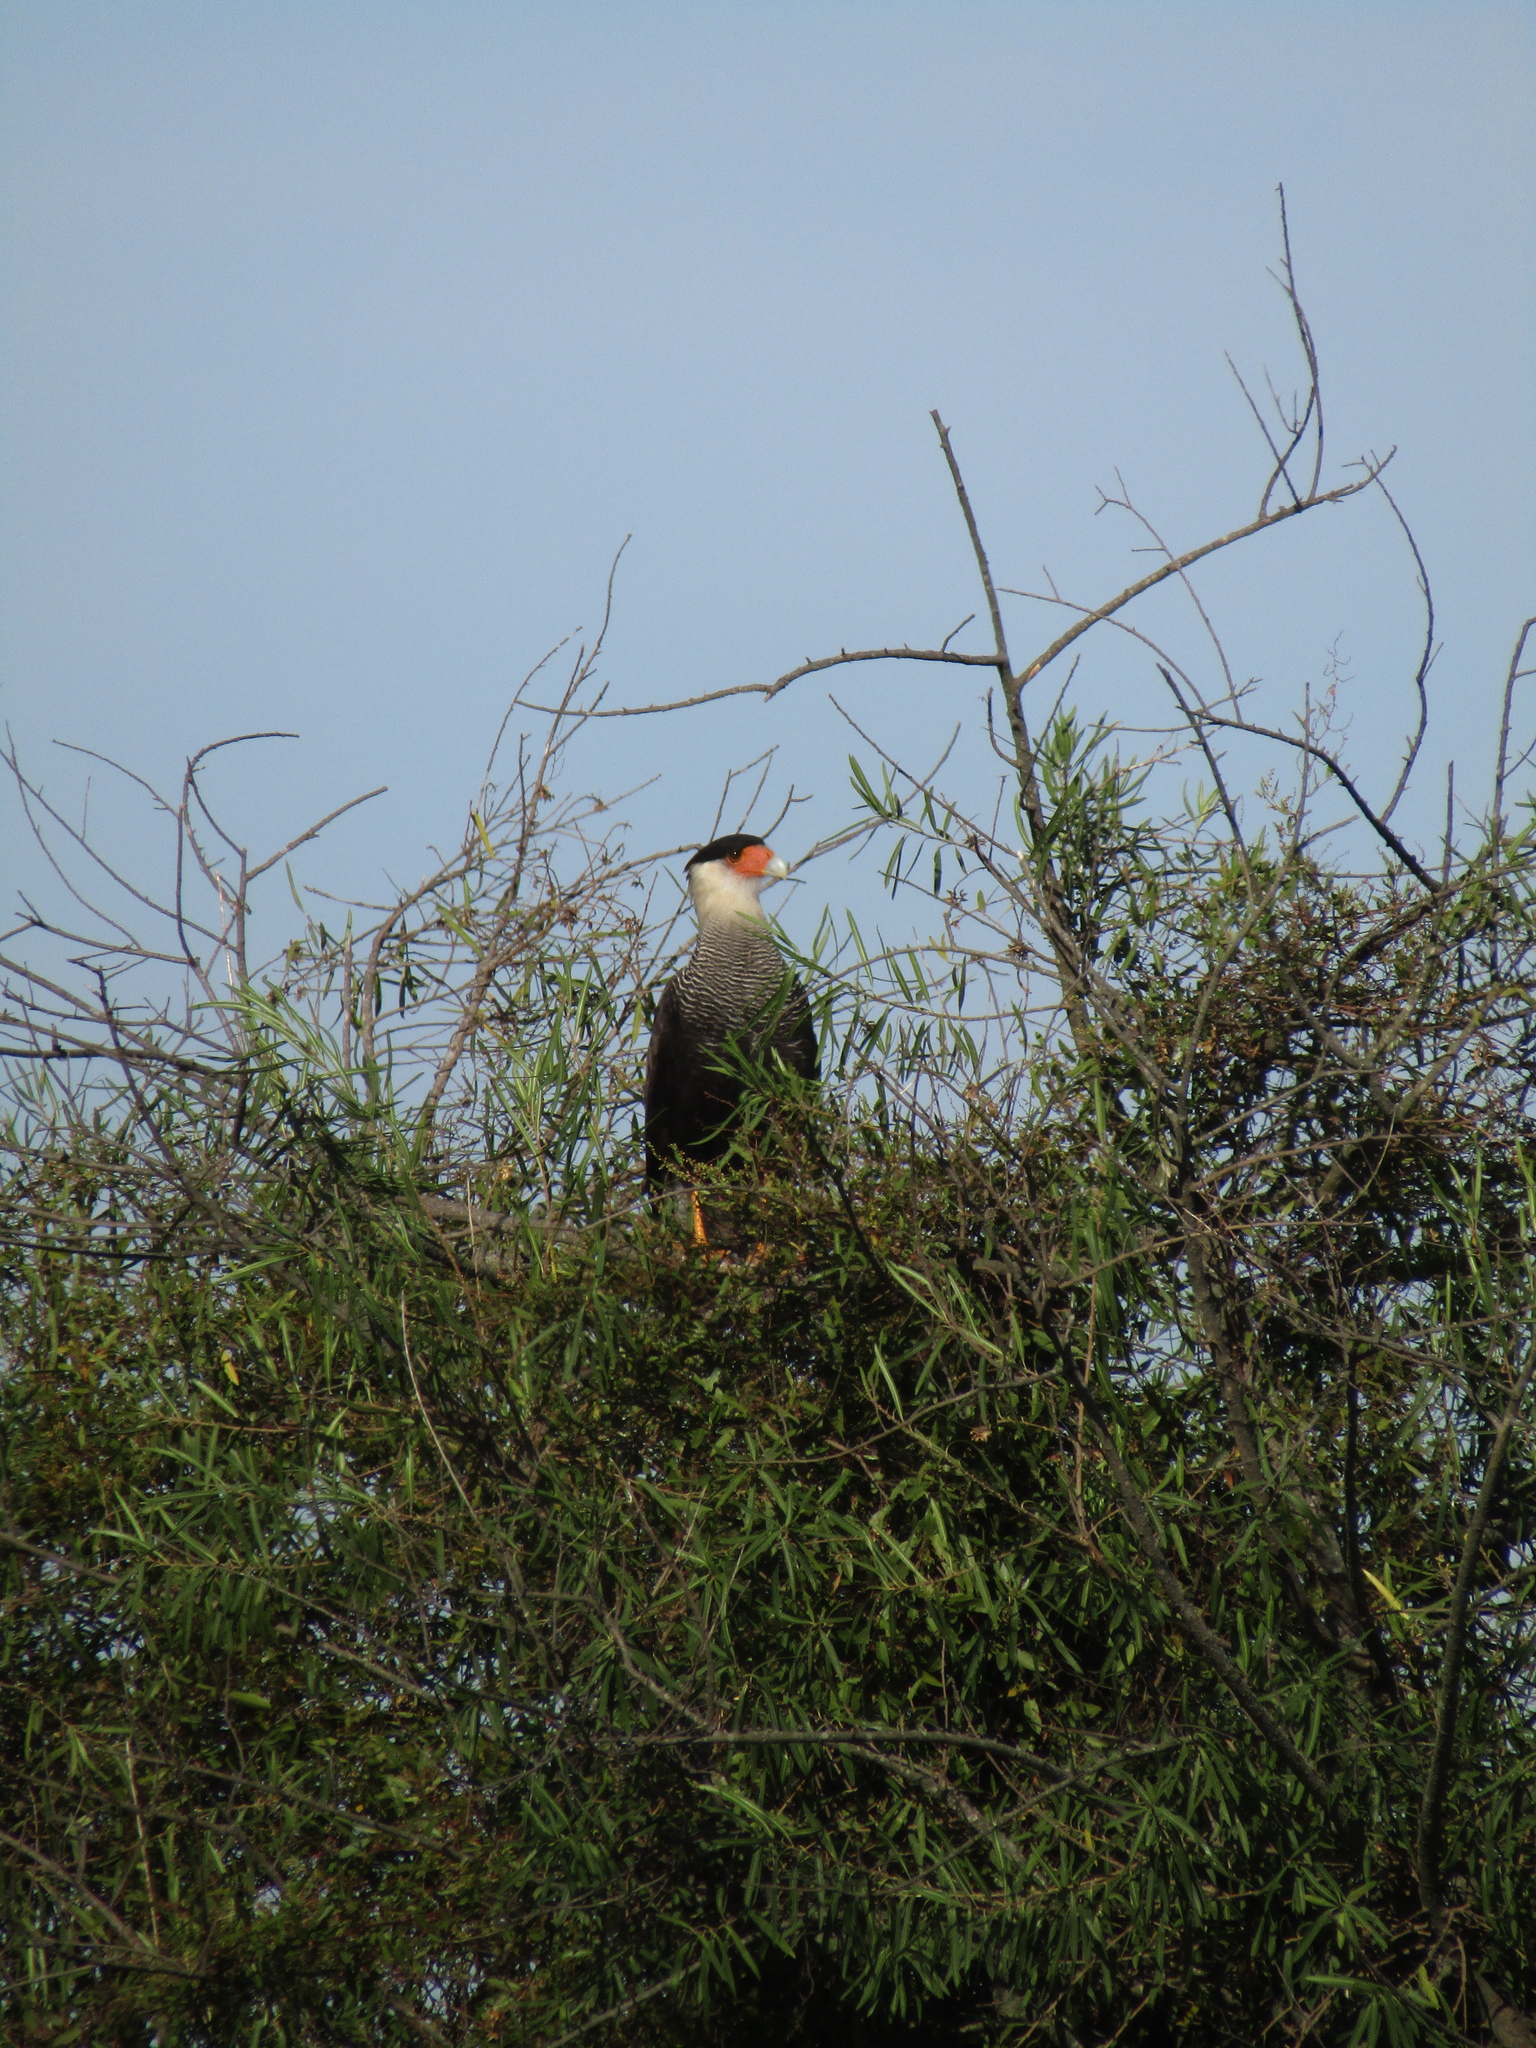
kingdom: Animalia
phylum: Chordata
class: Aves
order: Falconiformes
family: Falconidae
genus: Caracara
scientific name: Caracara plancus
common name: Southern caracara
